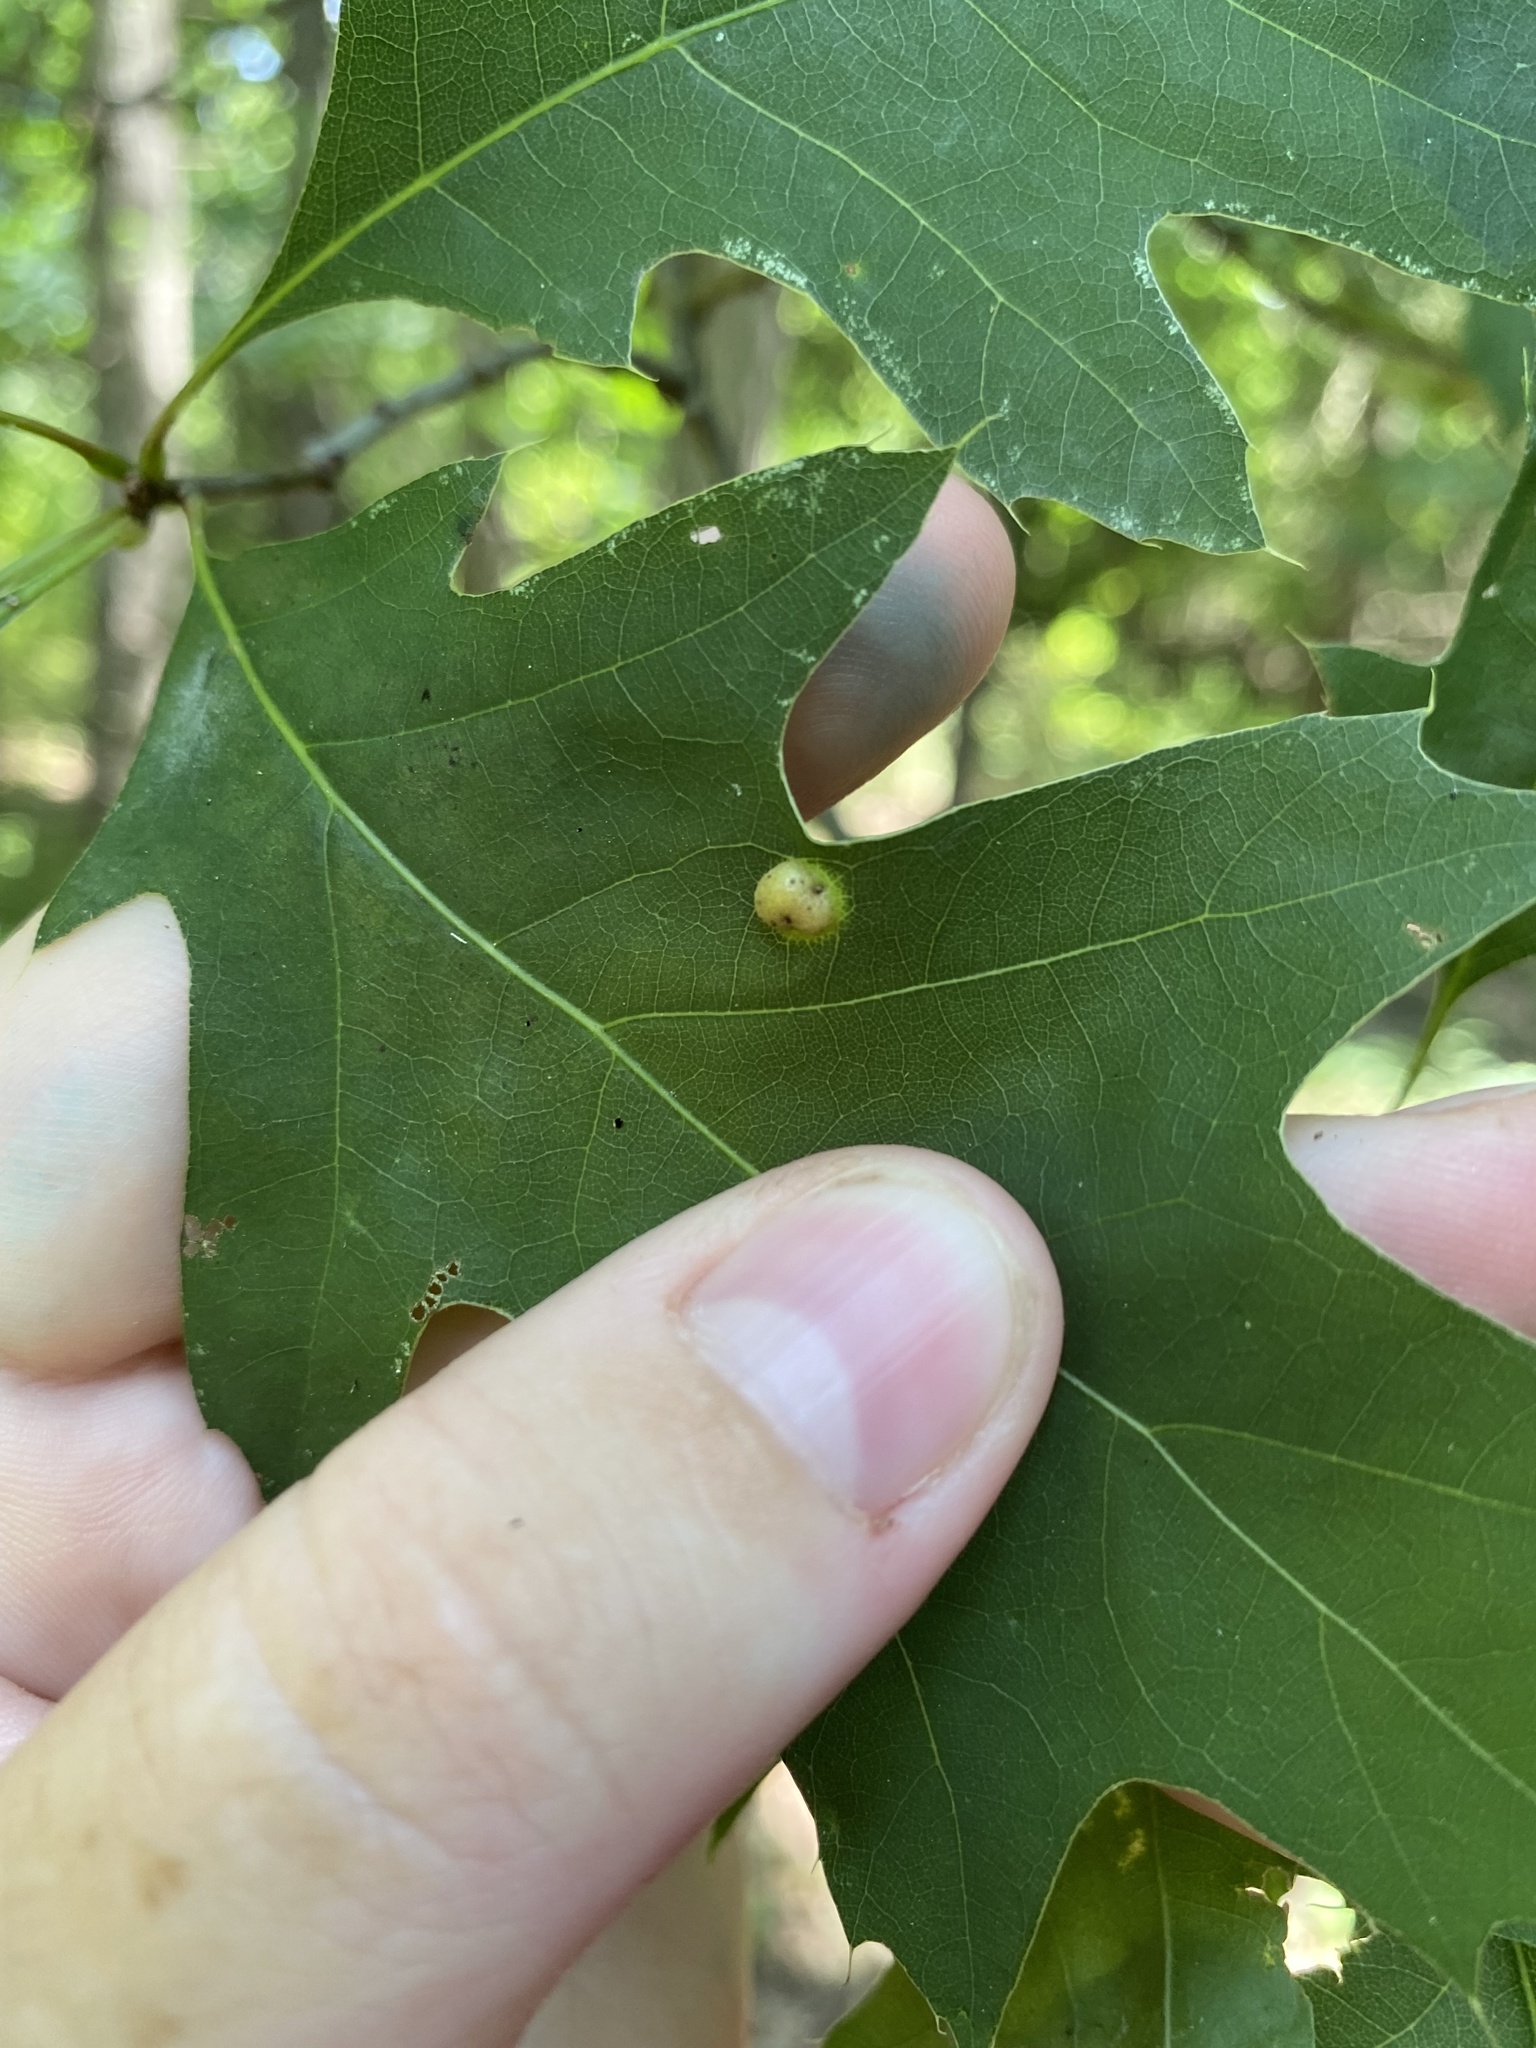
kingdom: Animalia
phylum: Arthropoda
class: Insecta
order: Diptera
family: Cecidomyiidae
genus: Polystepha
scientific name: Polystepha pilulae
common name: Oak leaf gall midge
